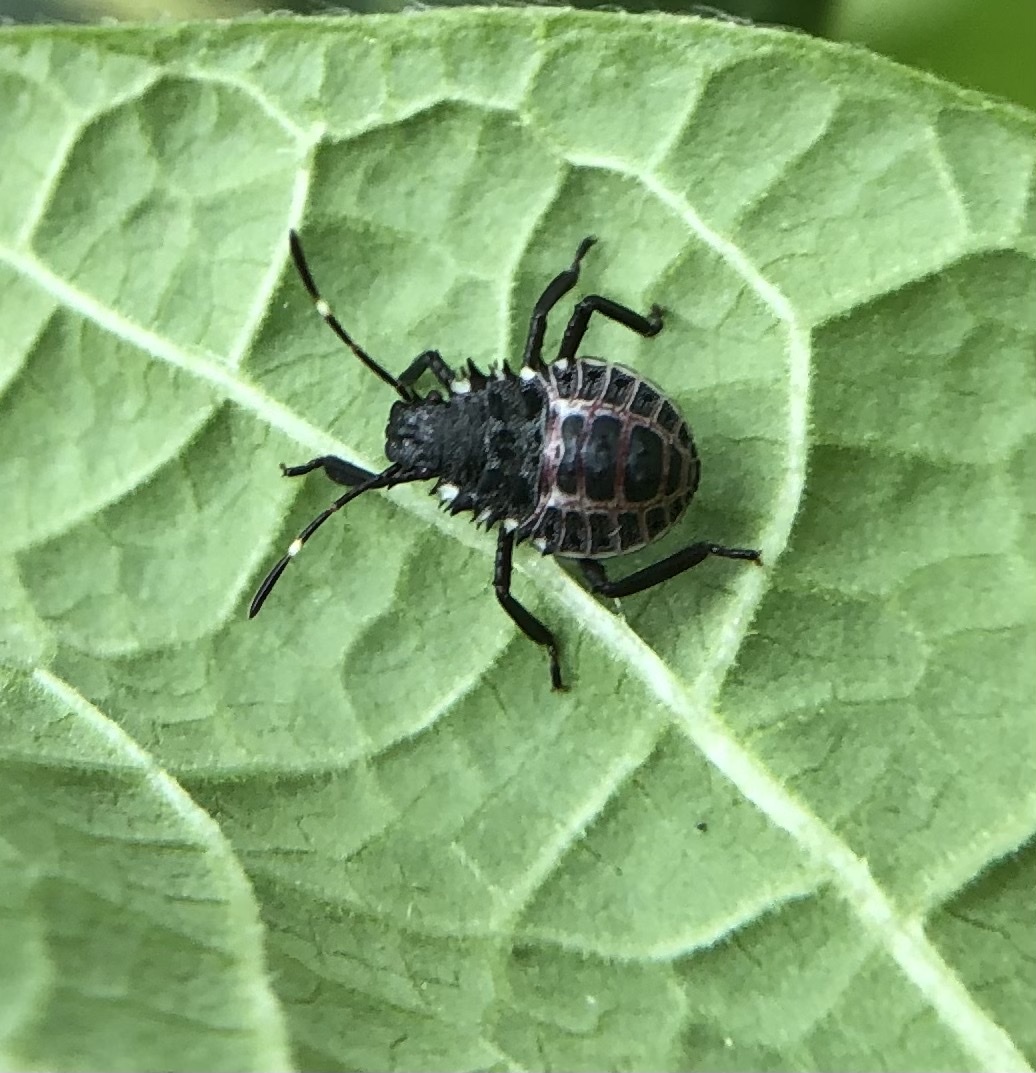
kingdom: Animalia
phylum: Arthropoda
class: Insecta
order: Hemiptera
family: Pentatomidae
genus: Halyomorpha
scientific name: Halyomorpha halys
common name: Brown marmorated stink bug
